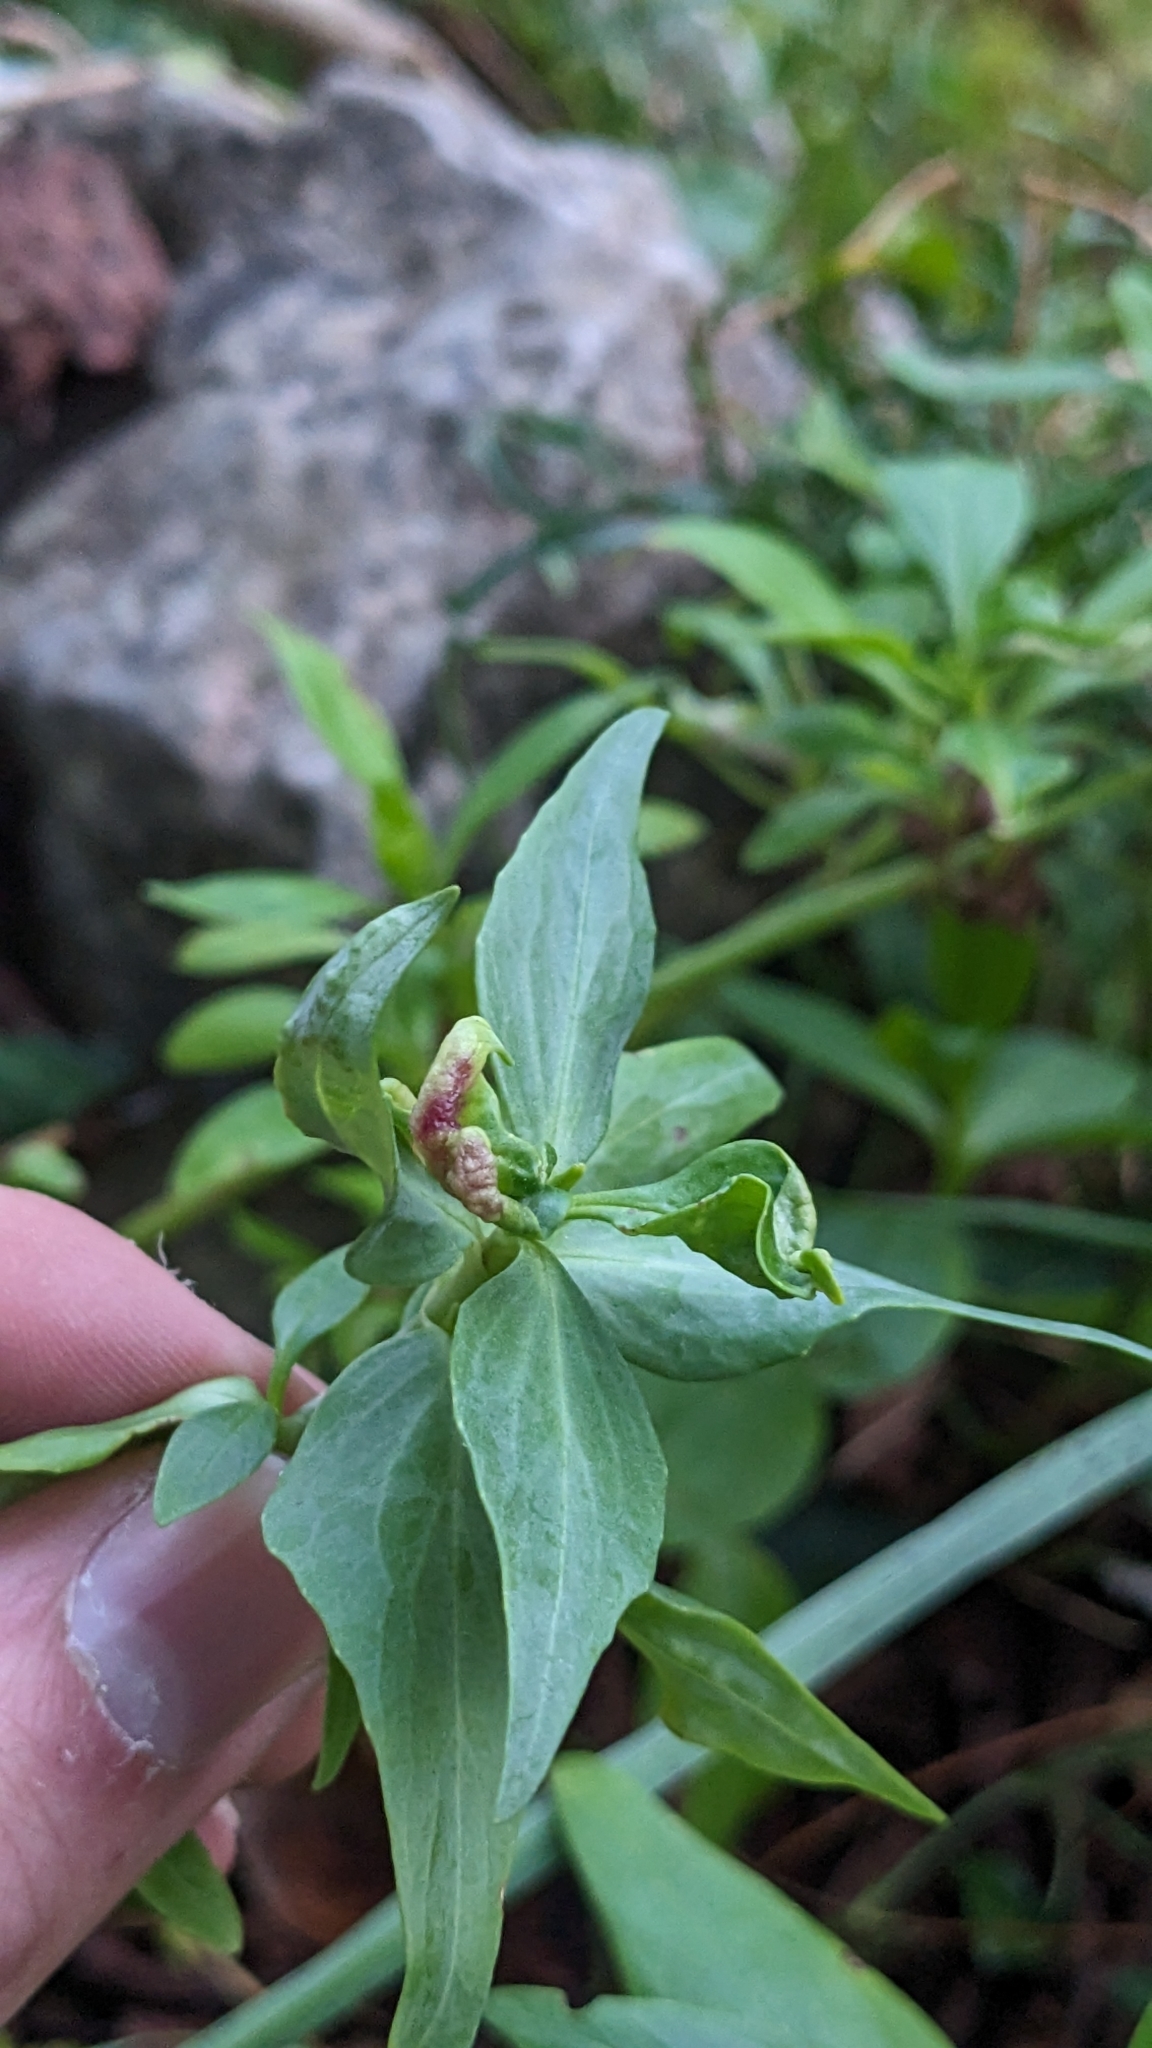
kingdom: Animalia
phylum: Arthropoda
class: Insecta
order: Hemiptera
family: Triozidae
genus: Trioza
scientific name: Trioza centranthi
